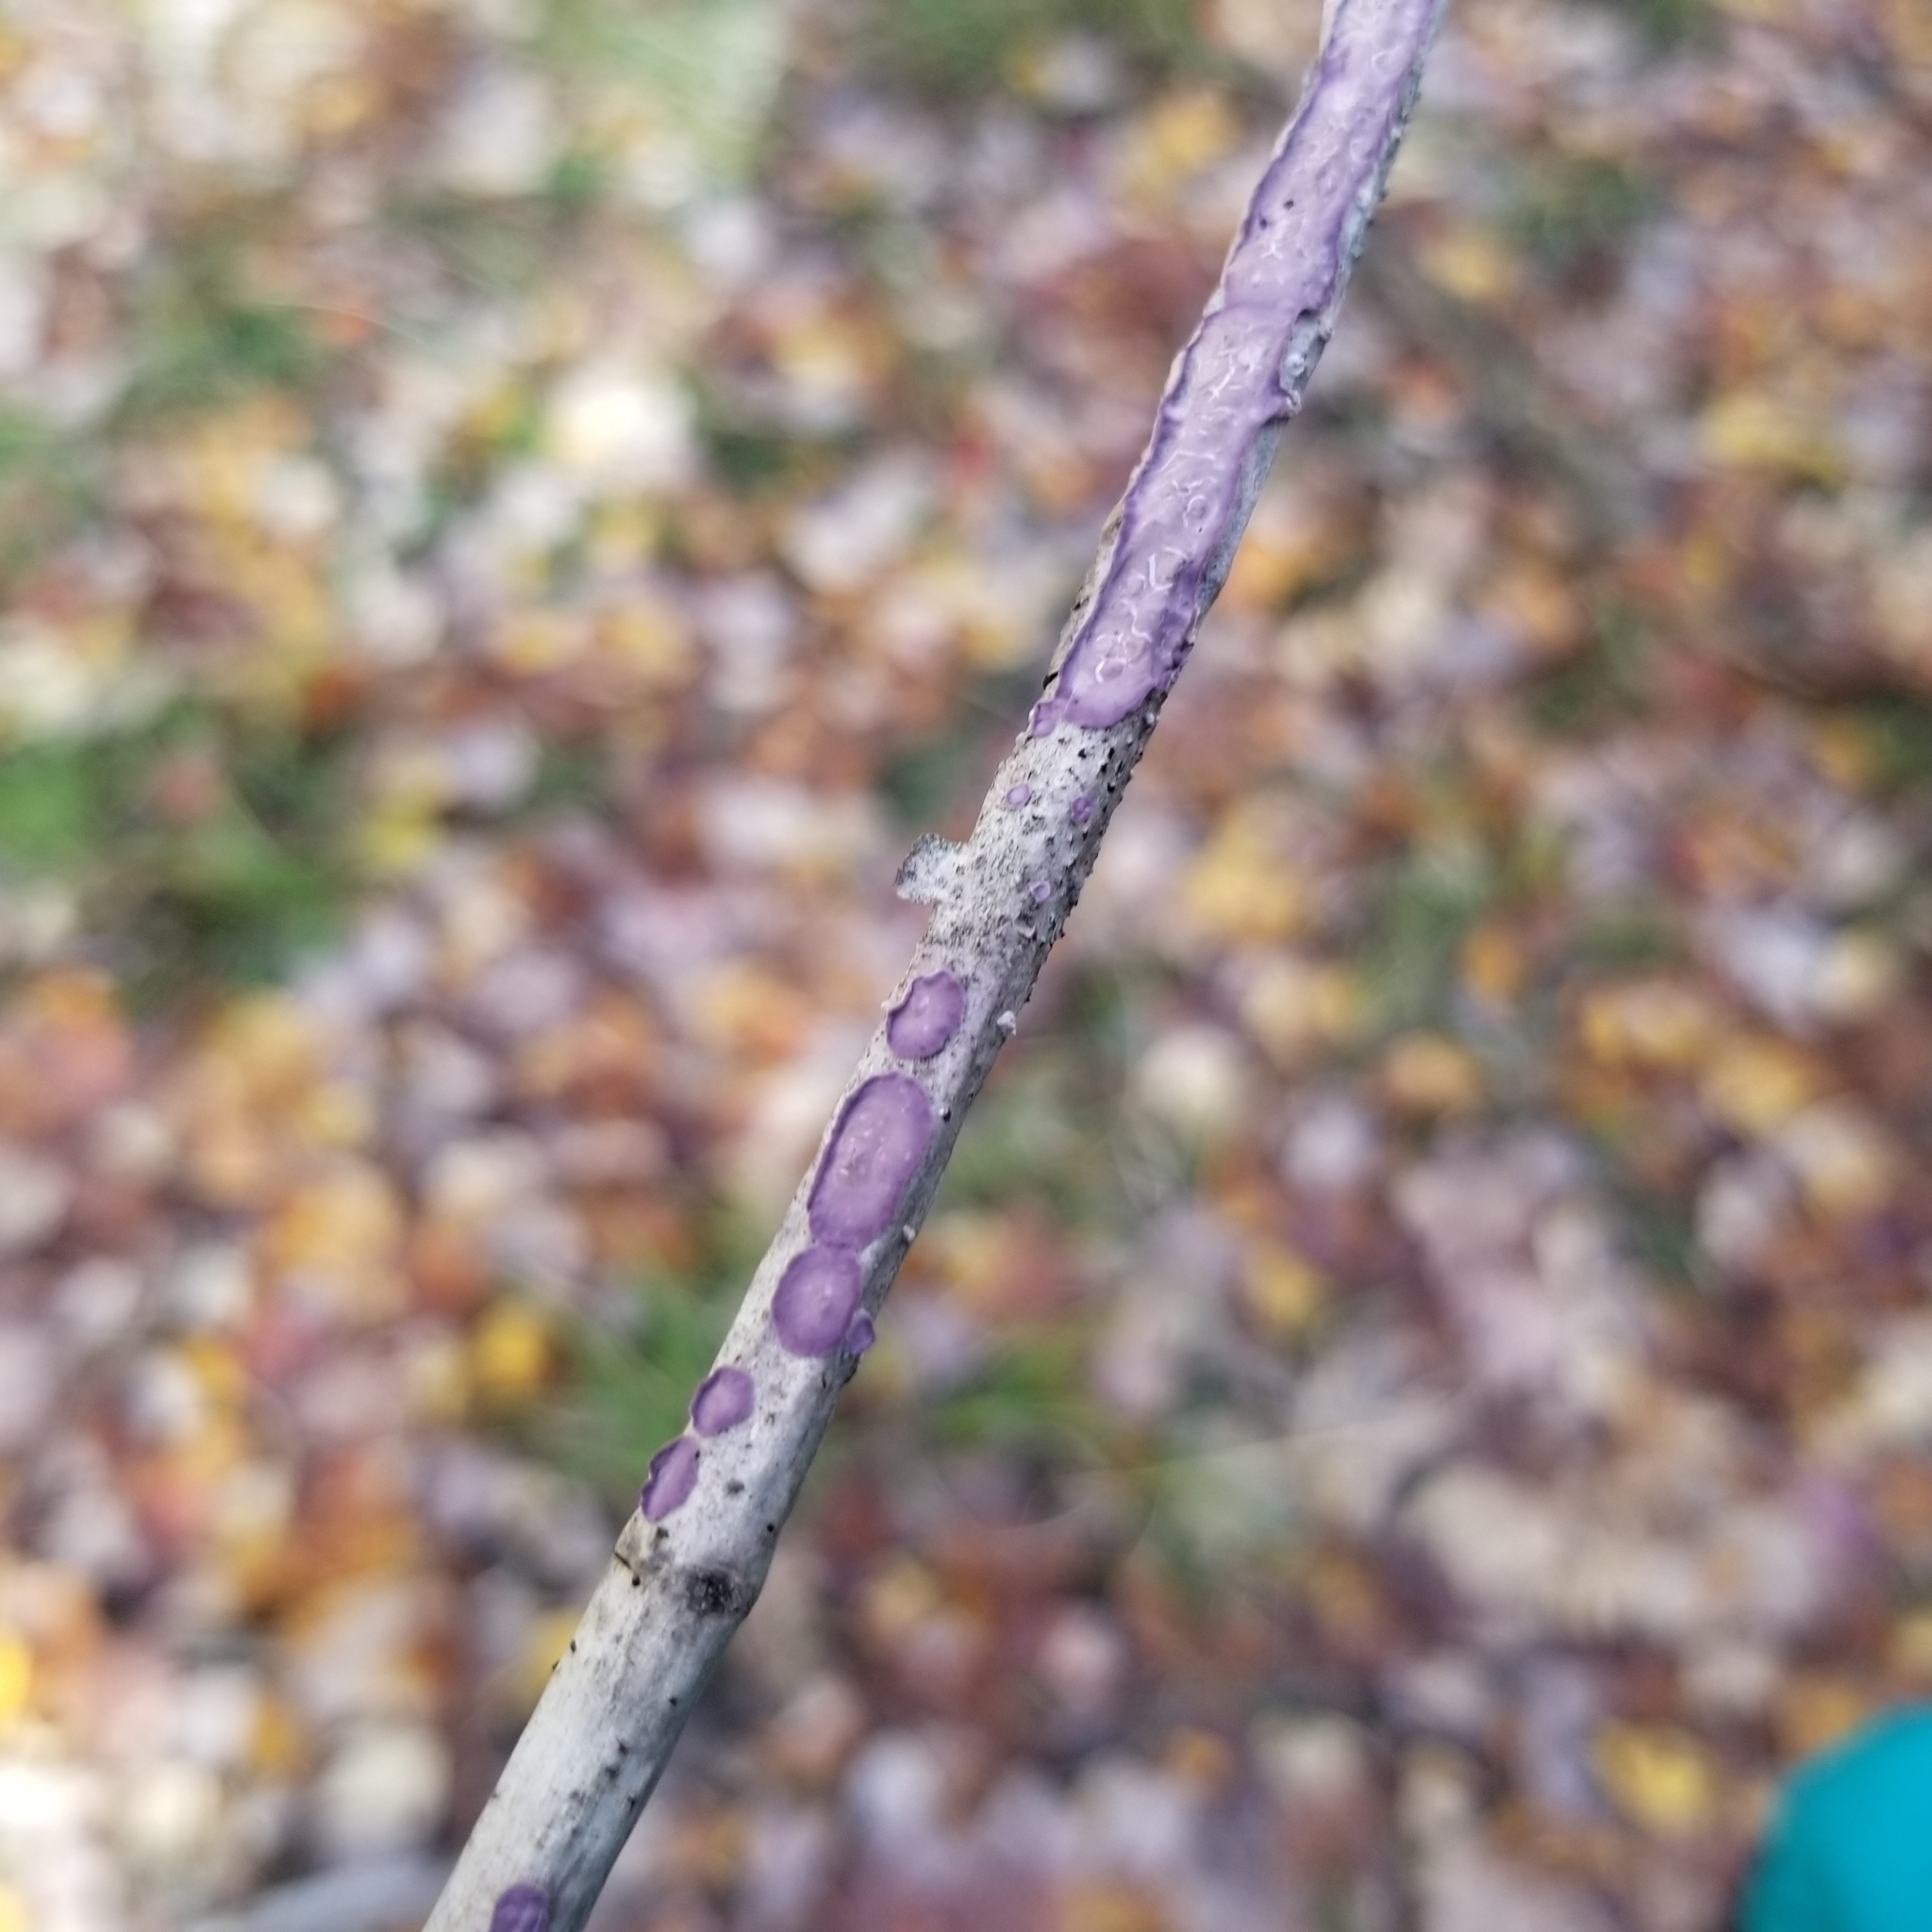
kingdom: Fungi
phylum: Basidiomycota
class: Agaricomycetes
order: Polyporales
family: Phanerochaetaceae
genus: Phlebiopsis
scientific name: Phlebiopsis crassa
